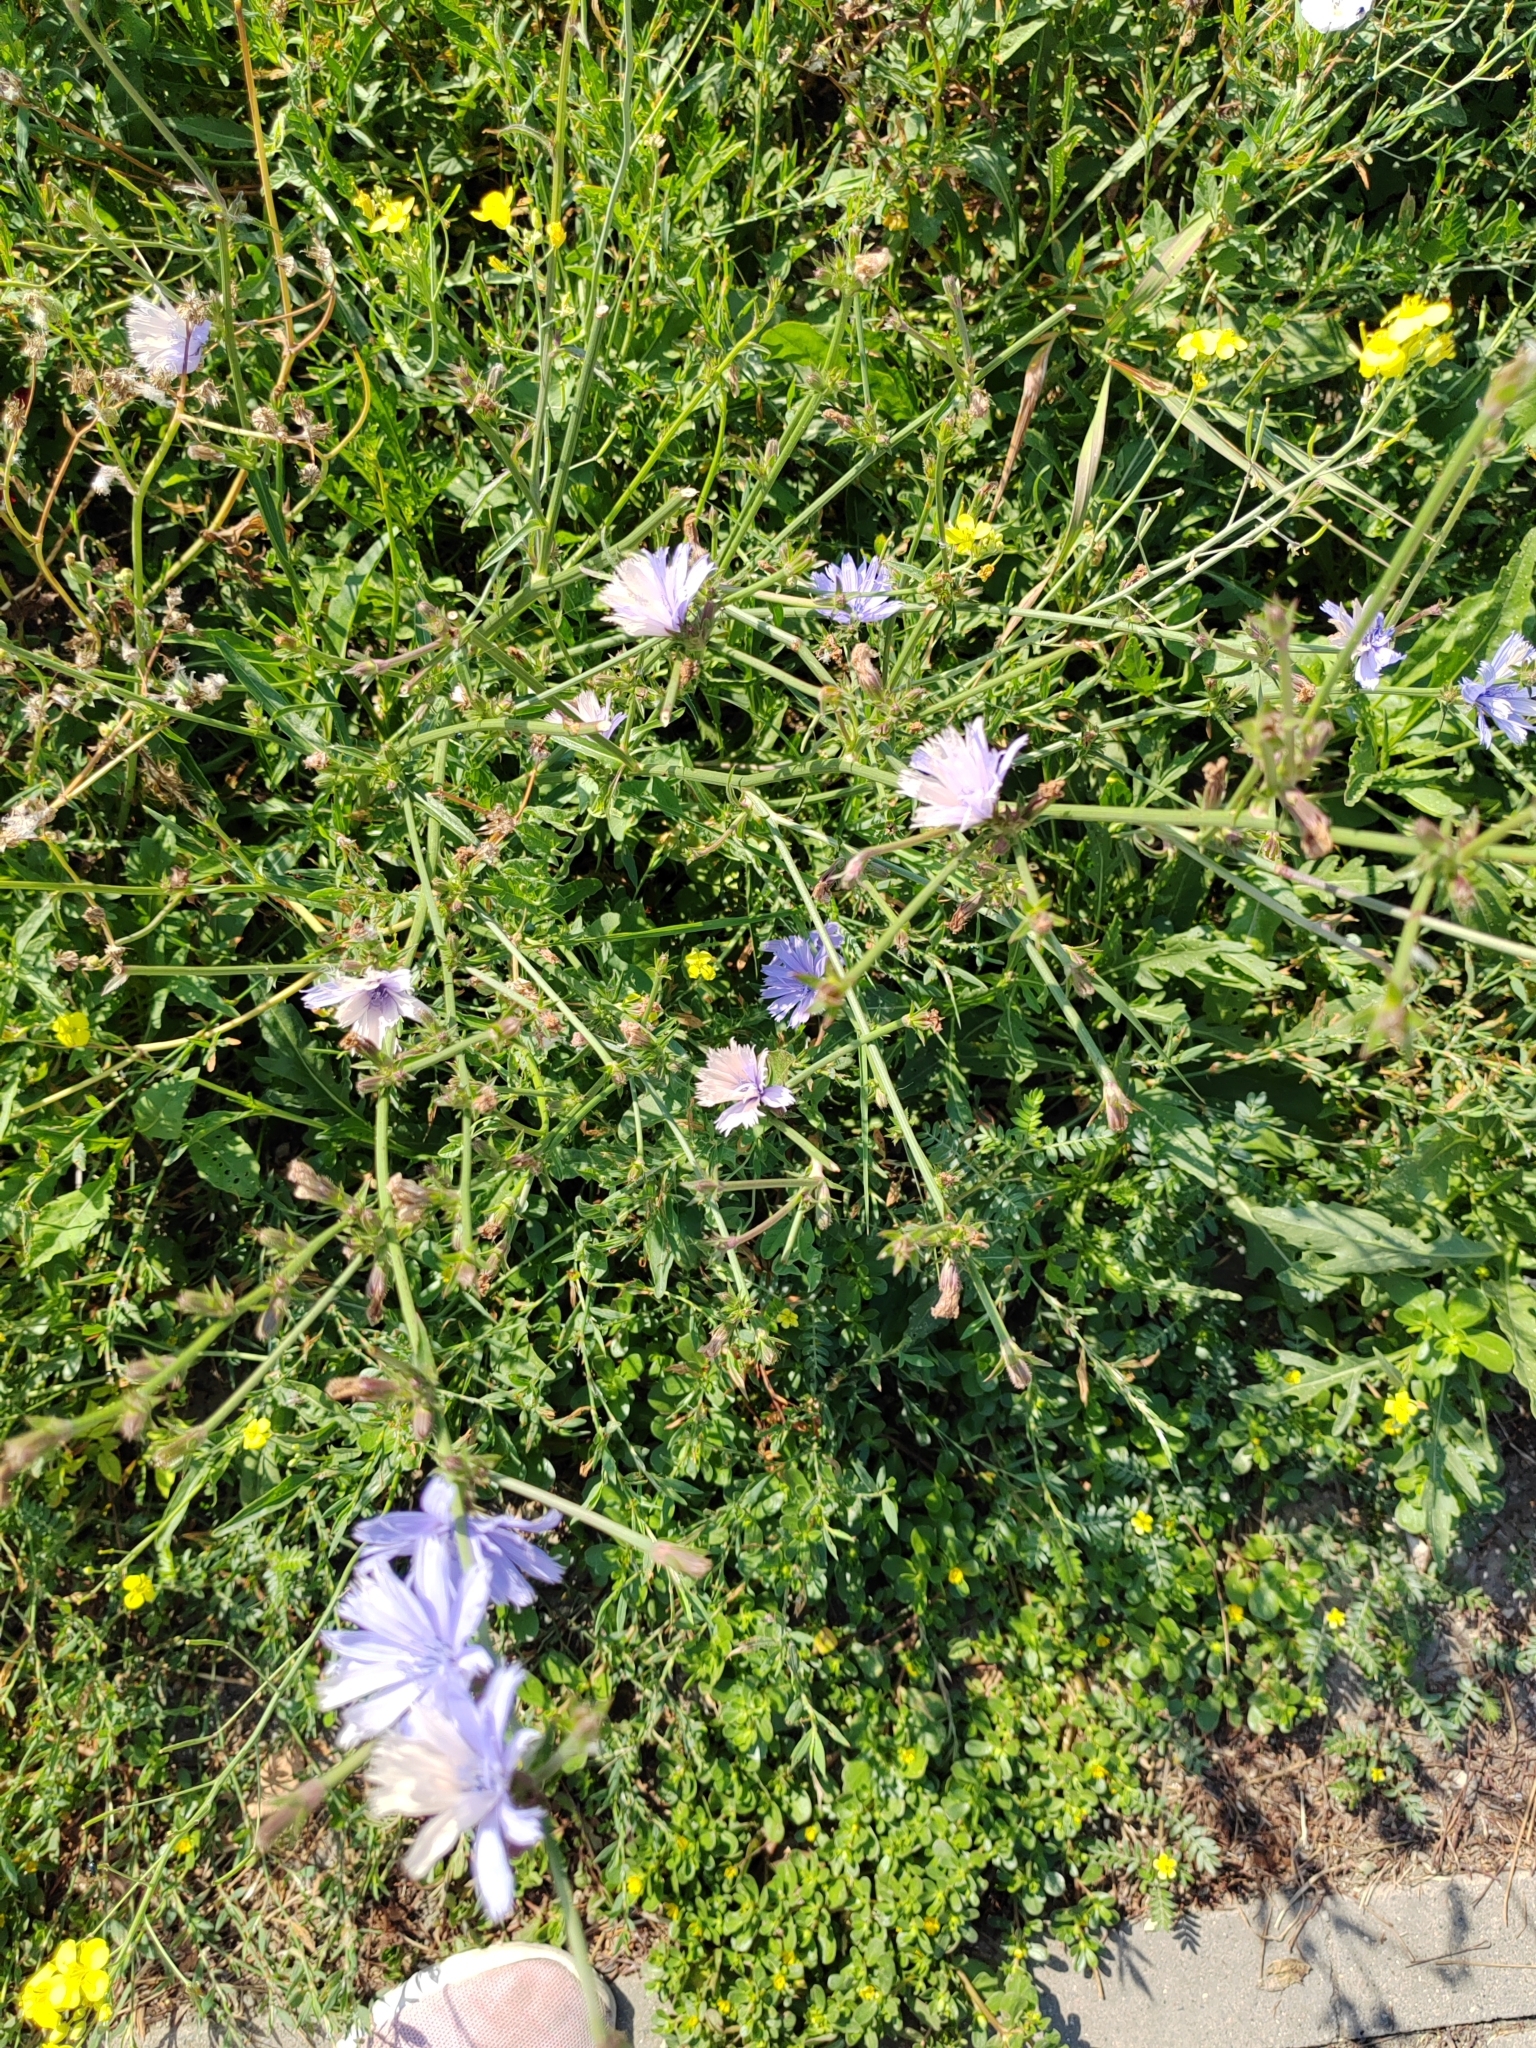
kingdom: Plantae
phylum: Tracheophyta
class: Magnoliopsida
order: Asterales
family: Asteraceae
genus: Cichorium
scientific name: Cichorium intybus
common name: Chicory
